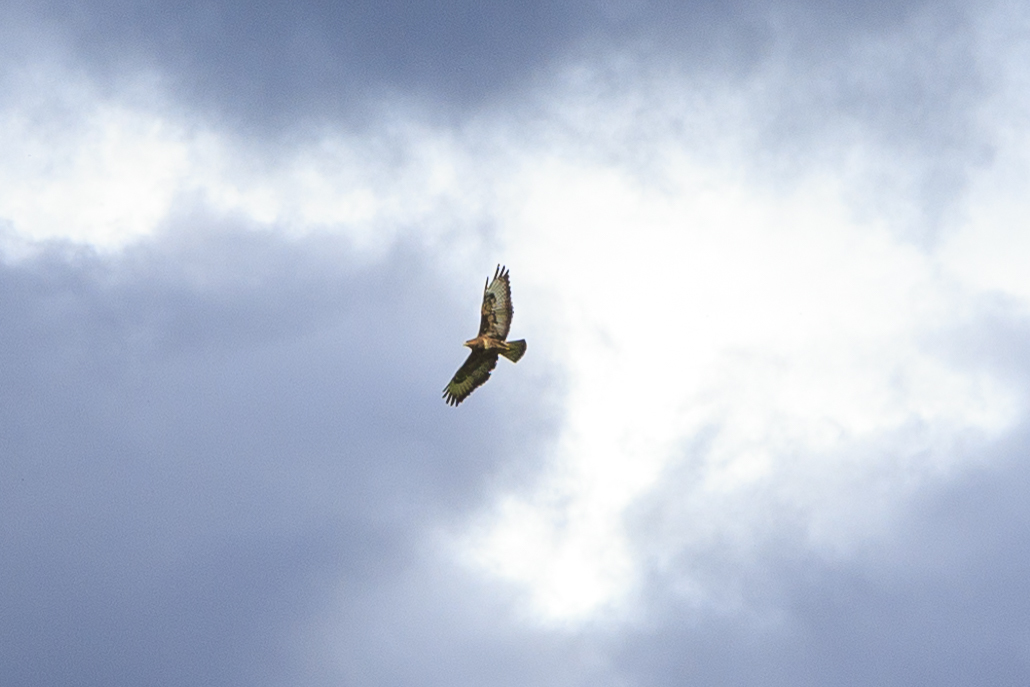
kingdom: Animalia
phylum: Chordata
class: Aves
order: Accipitriformes
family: Accipitridae
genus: Buteo
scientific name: Buteo buteo
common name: Common buzzard
